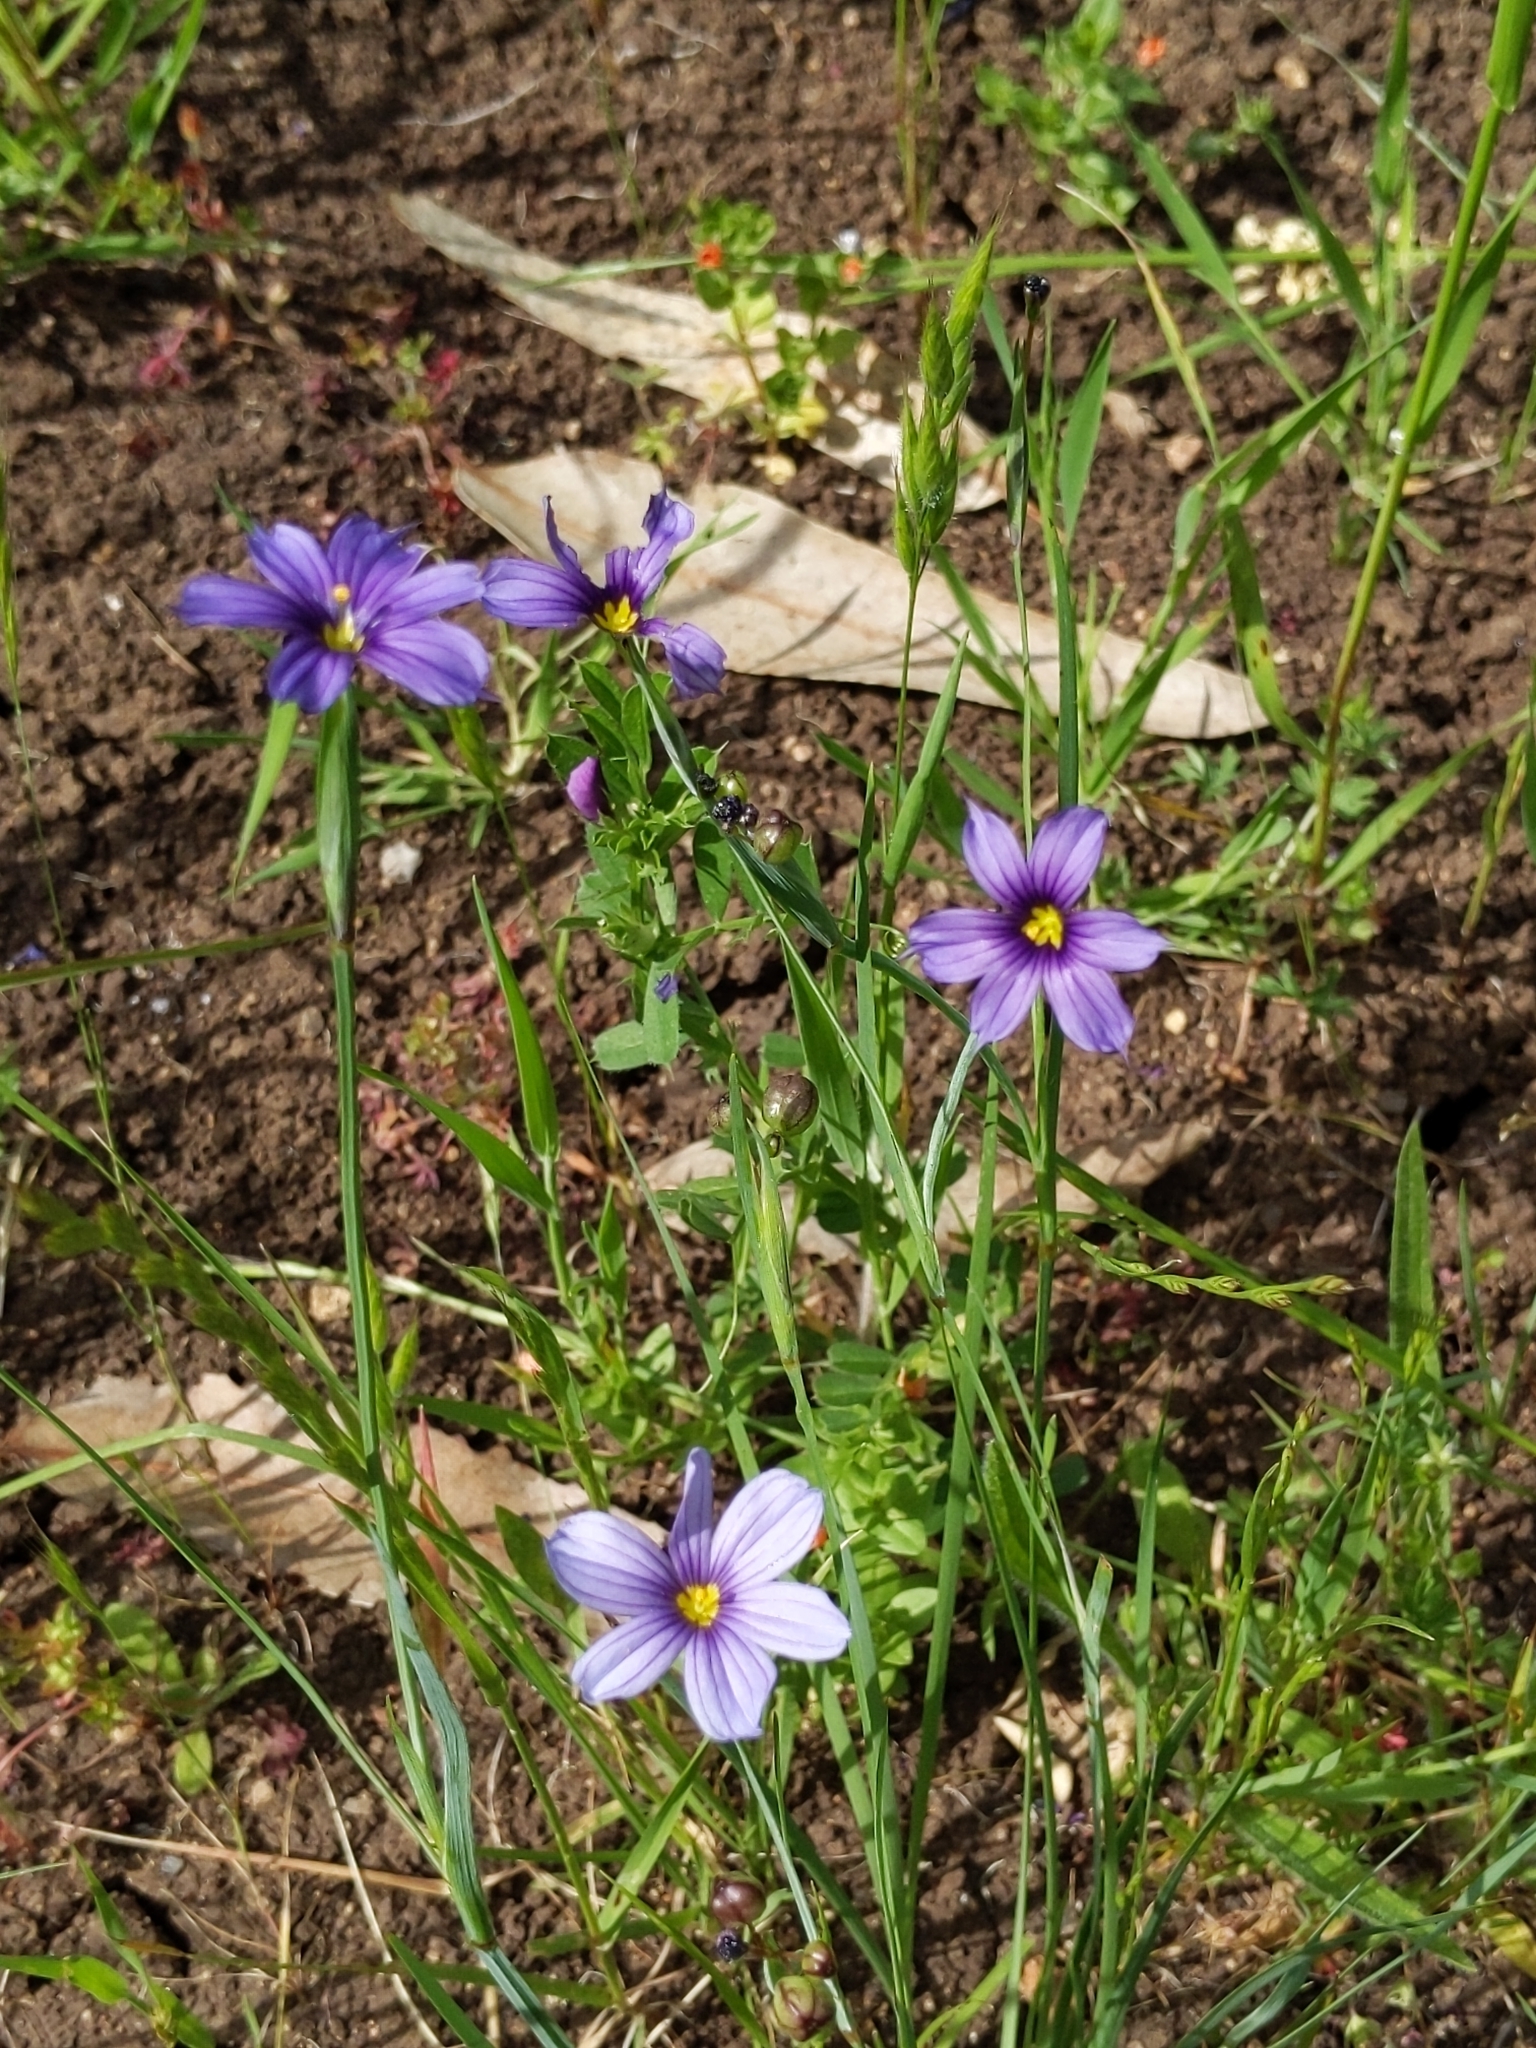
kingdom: Plantae
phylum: Tracheophyta
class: Liliopsida
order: Asparagales
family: Iridaceae
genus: Sisyrinchium
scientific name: Sisyrinchium bellum
